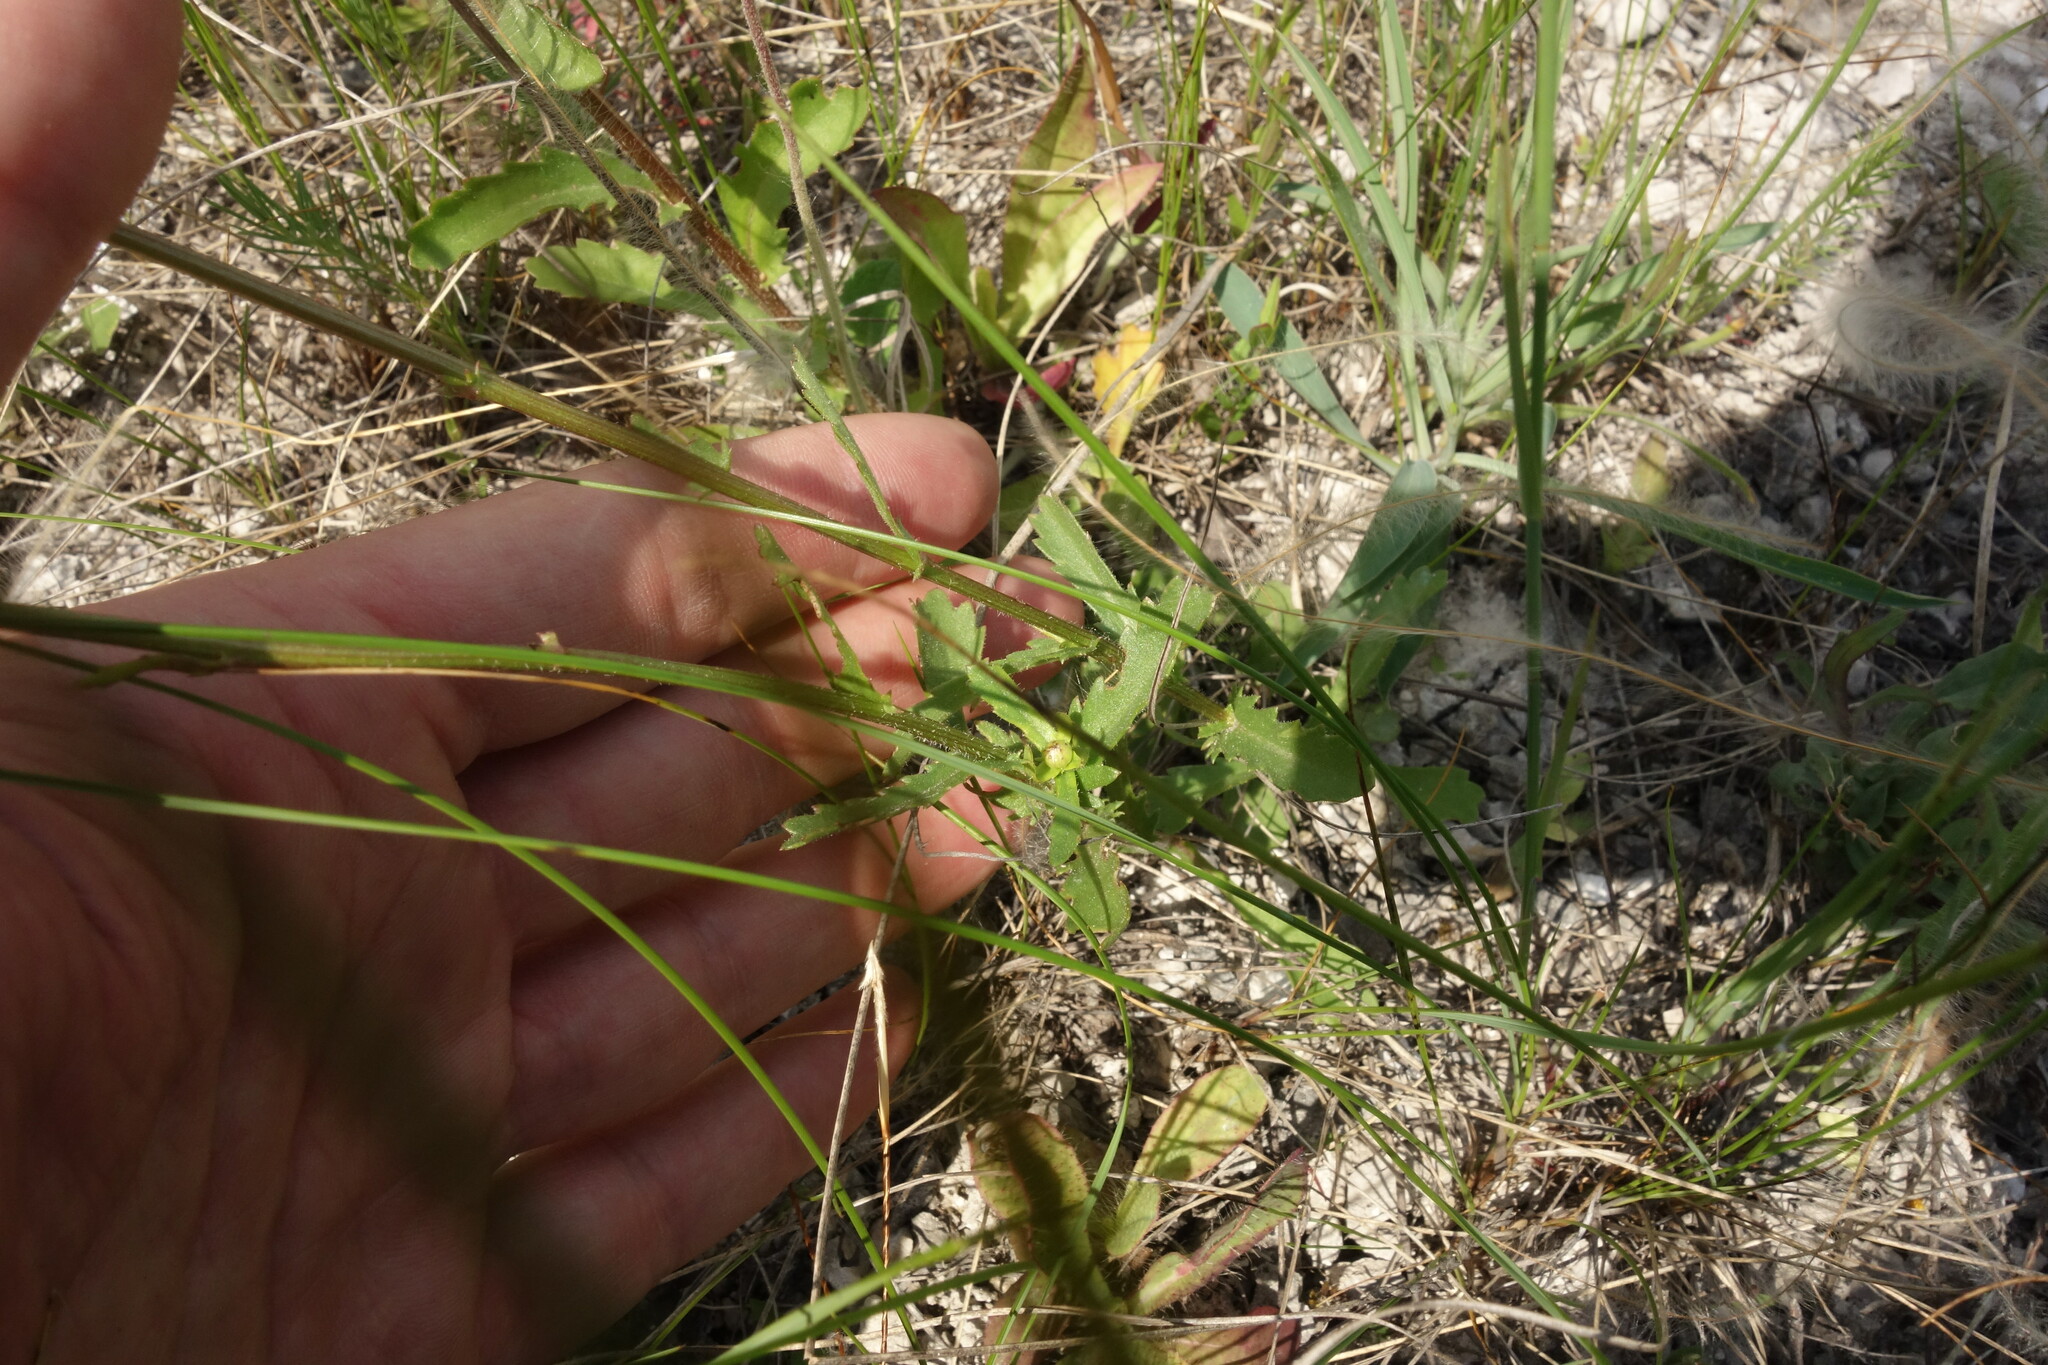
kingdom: Plantae
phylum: Tracheophyta
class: Magnoliopsida
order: Asterales
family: Asteraceae
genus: Leucanthemum
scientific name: Leucanthemum vulgare
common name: Oxeye daisy
